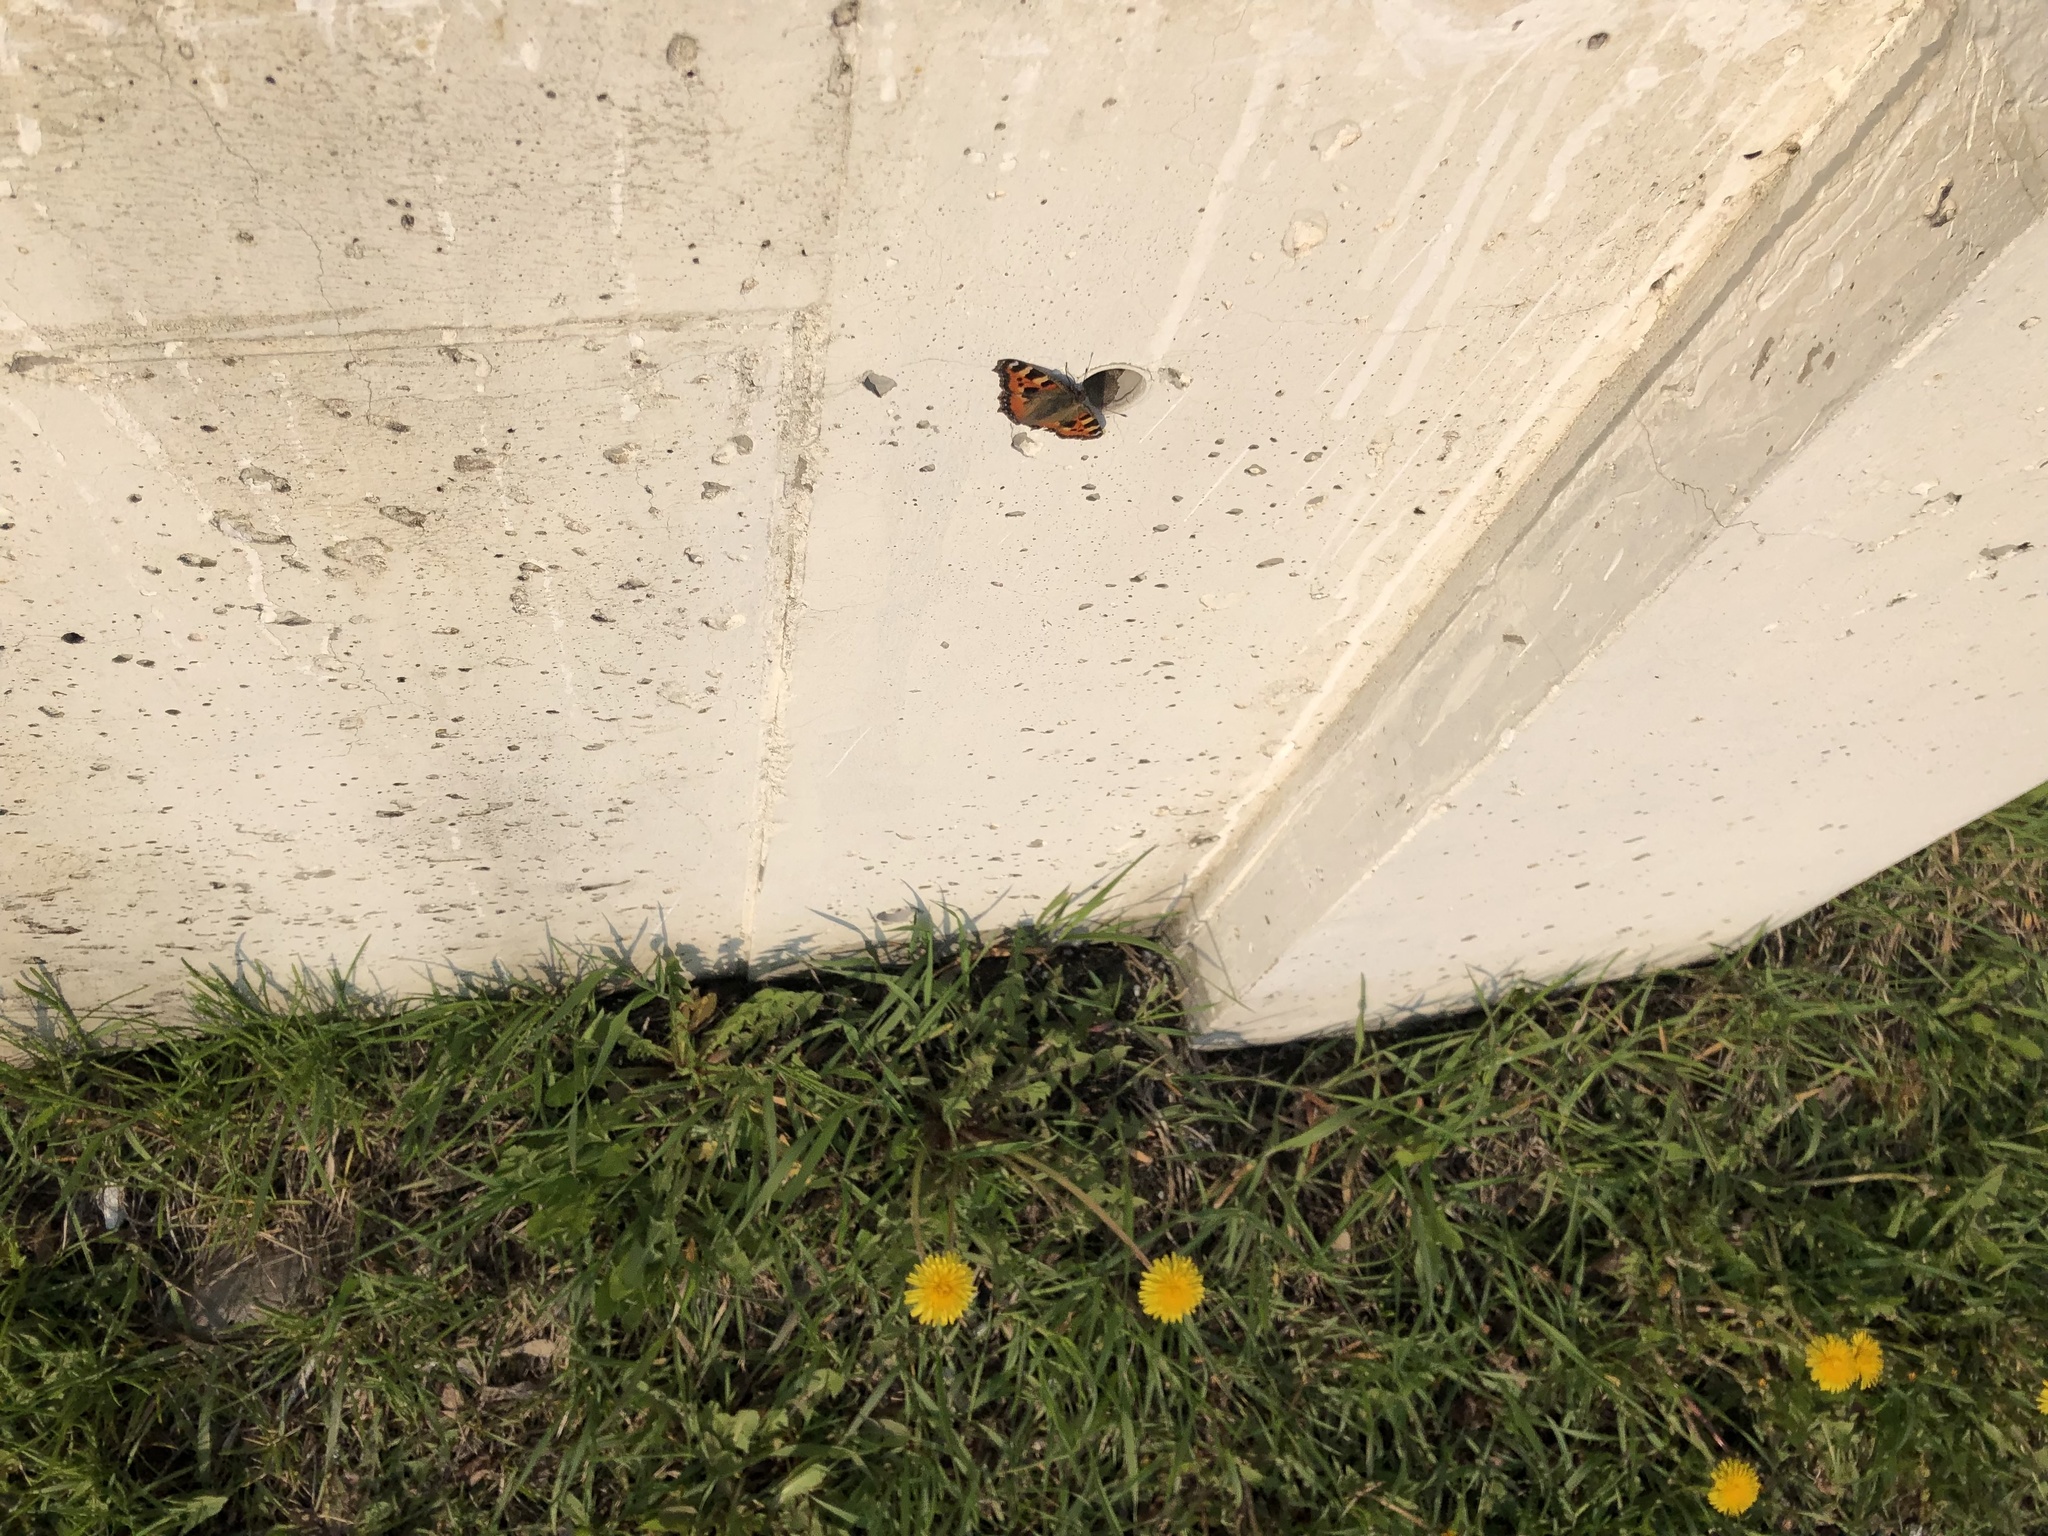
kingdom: Animalia
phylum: Arthropoda
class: Insecta
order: Lepidoptera
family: Nymphalidae
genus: Aglais
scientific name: Aglais urticae
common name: Small tortoiseshell
